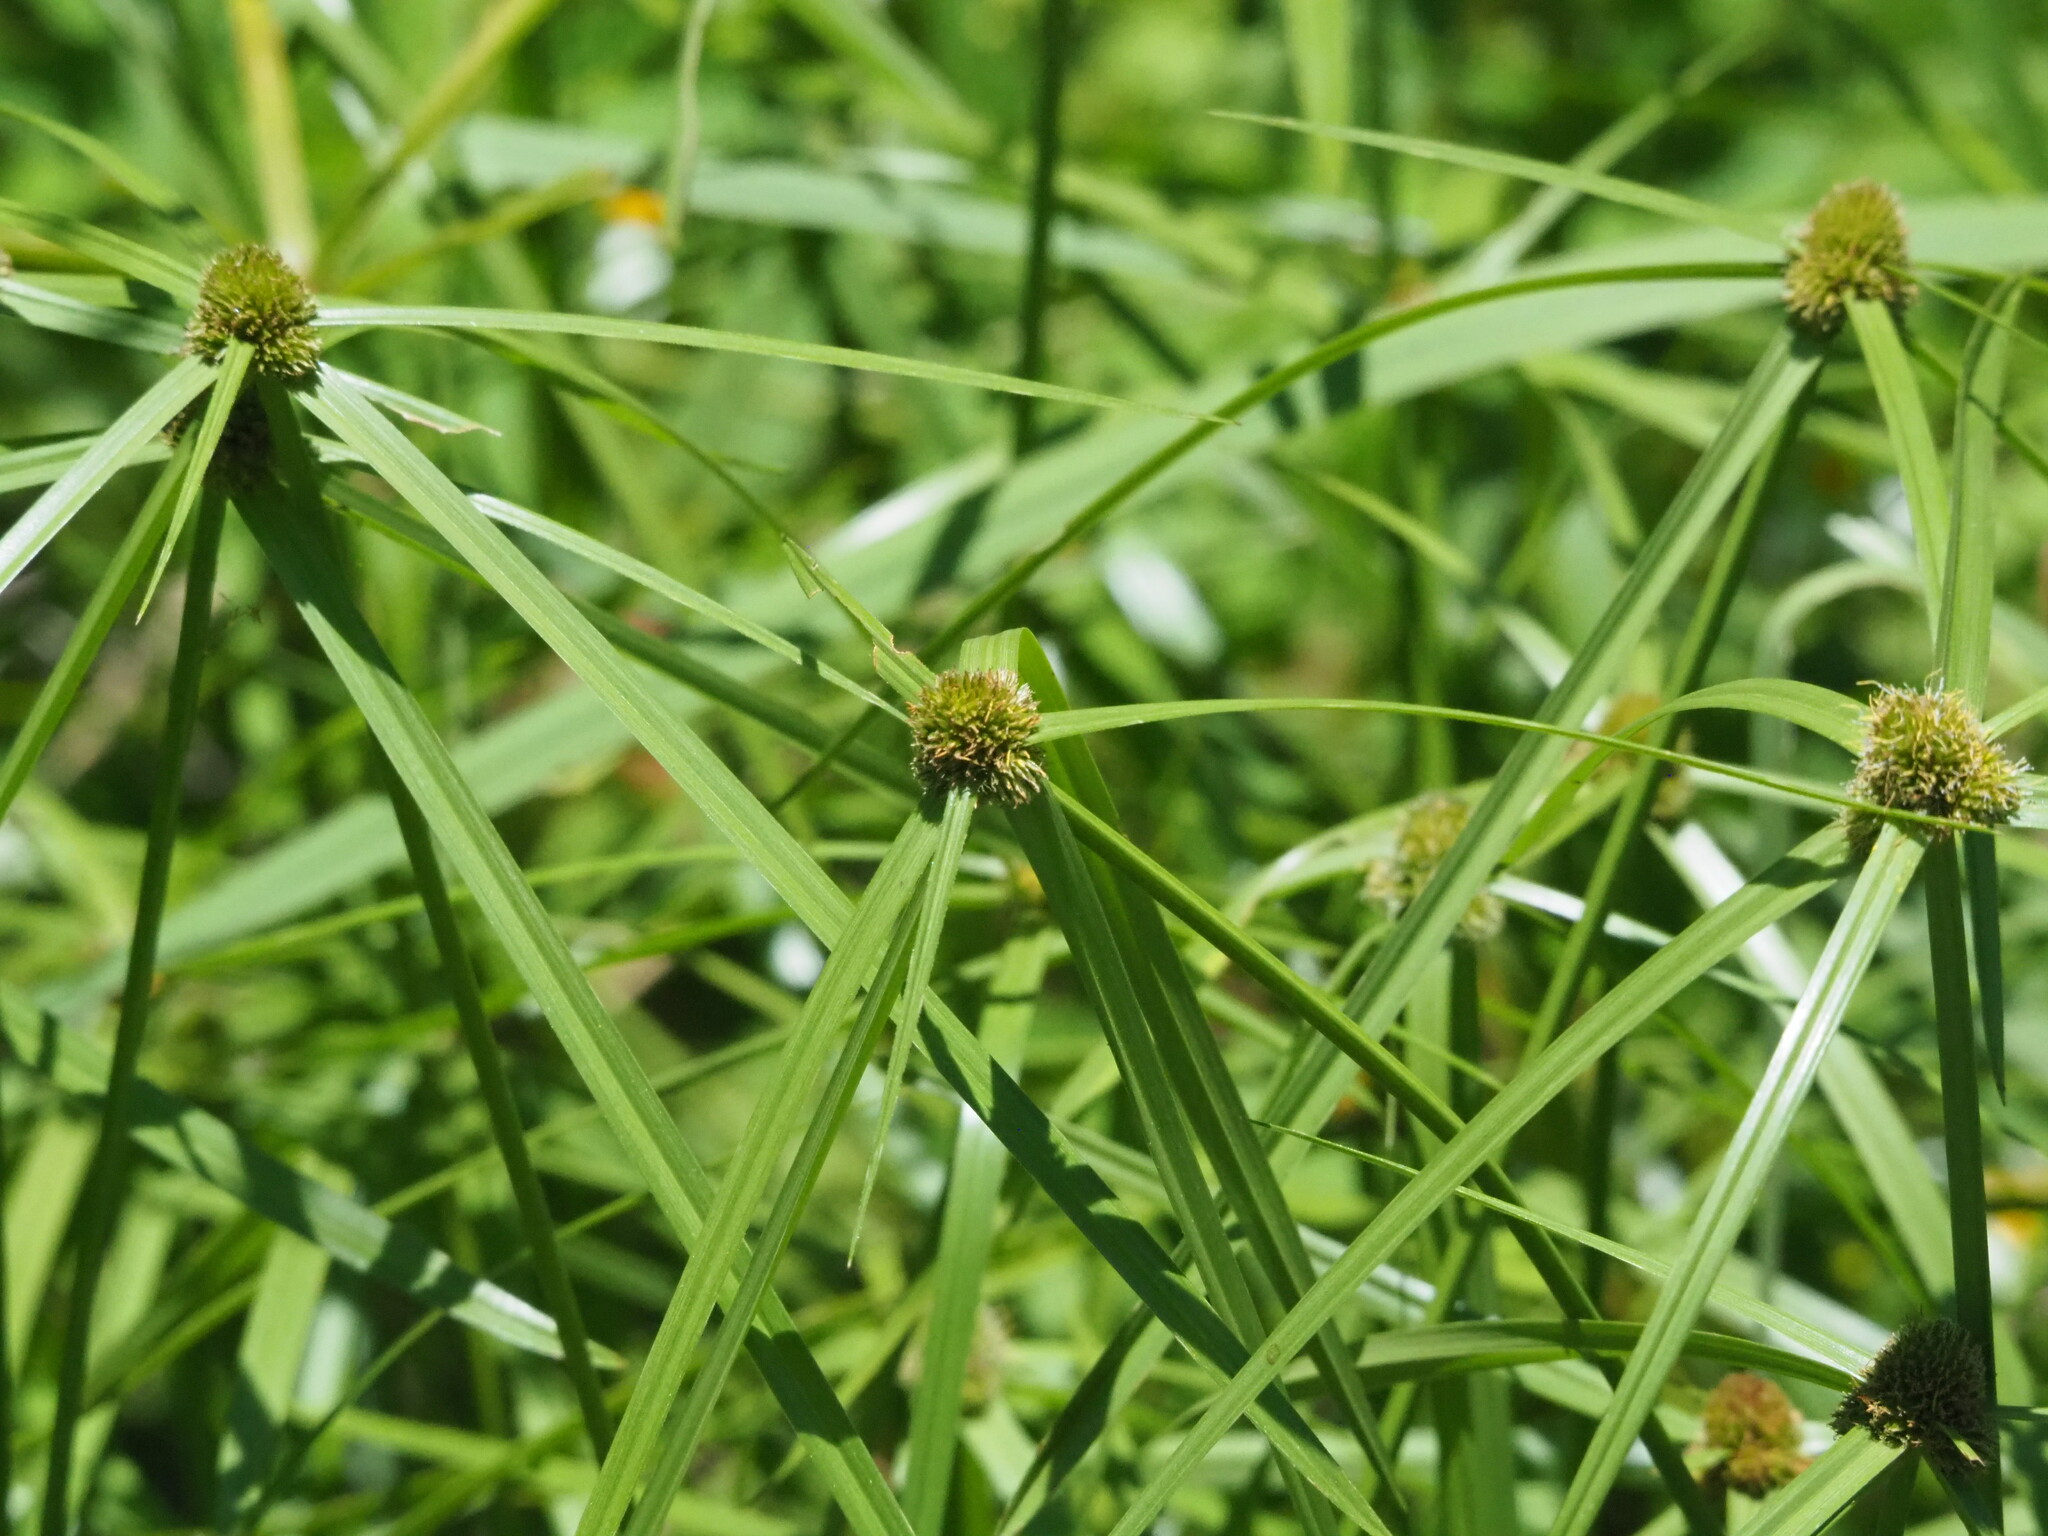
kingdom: Plantae
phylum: Tracheophyta
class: Liliopsida
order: Poales
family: Cyperaceae
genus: Cyperus
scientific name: Cyperus aromaticus
